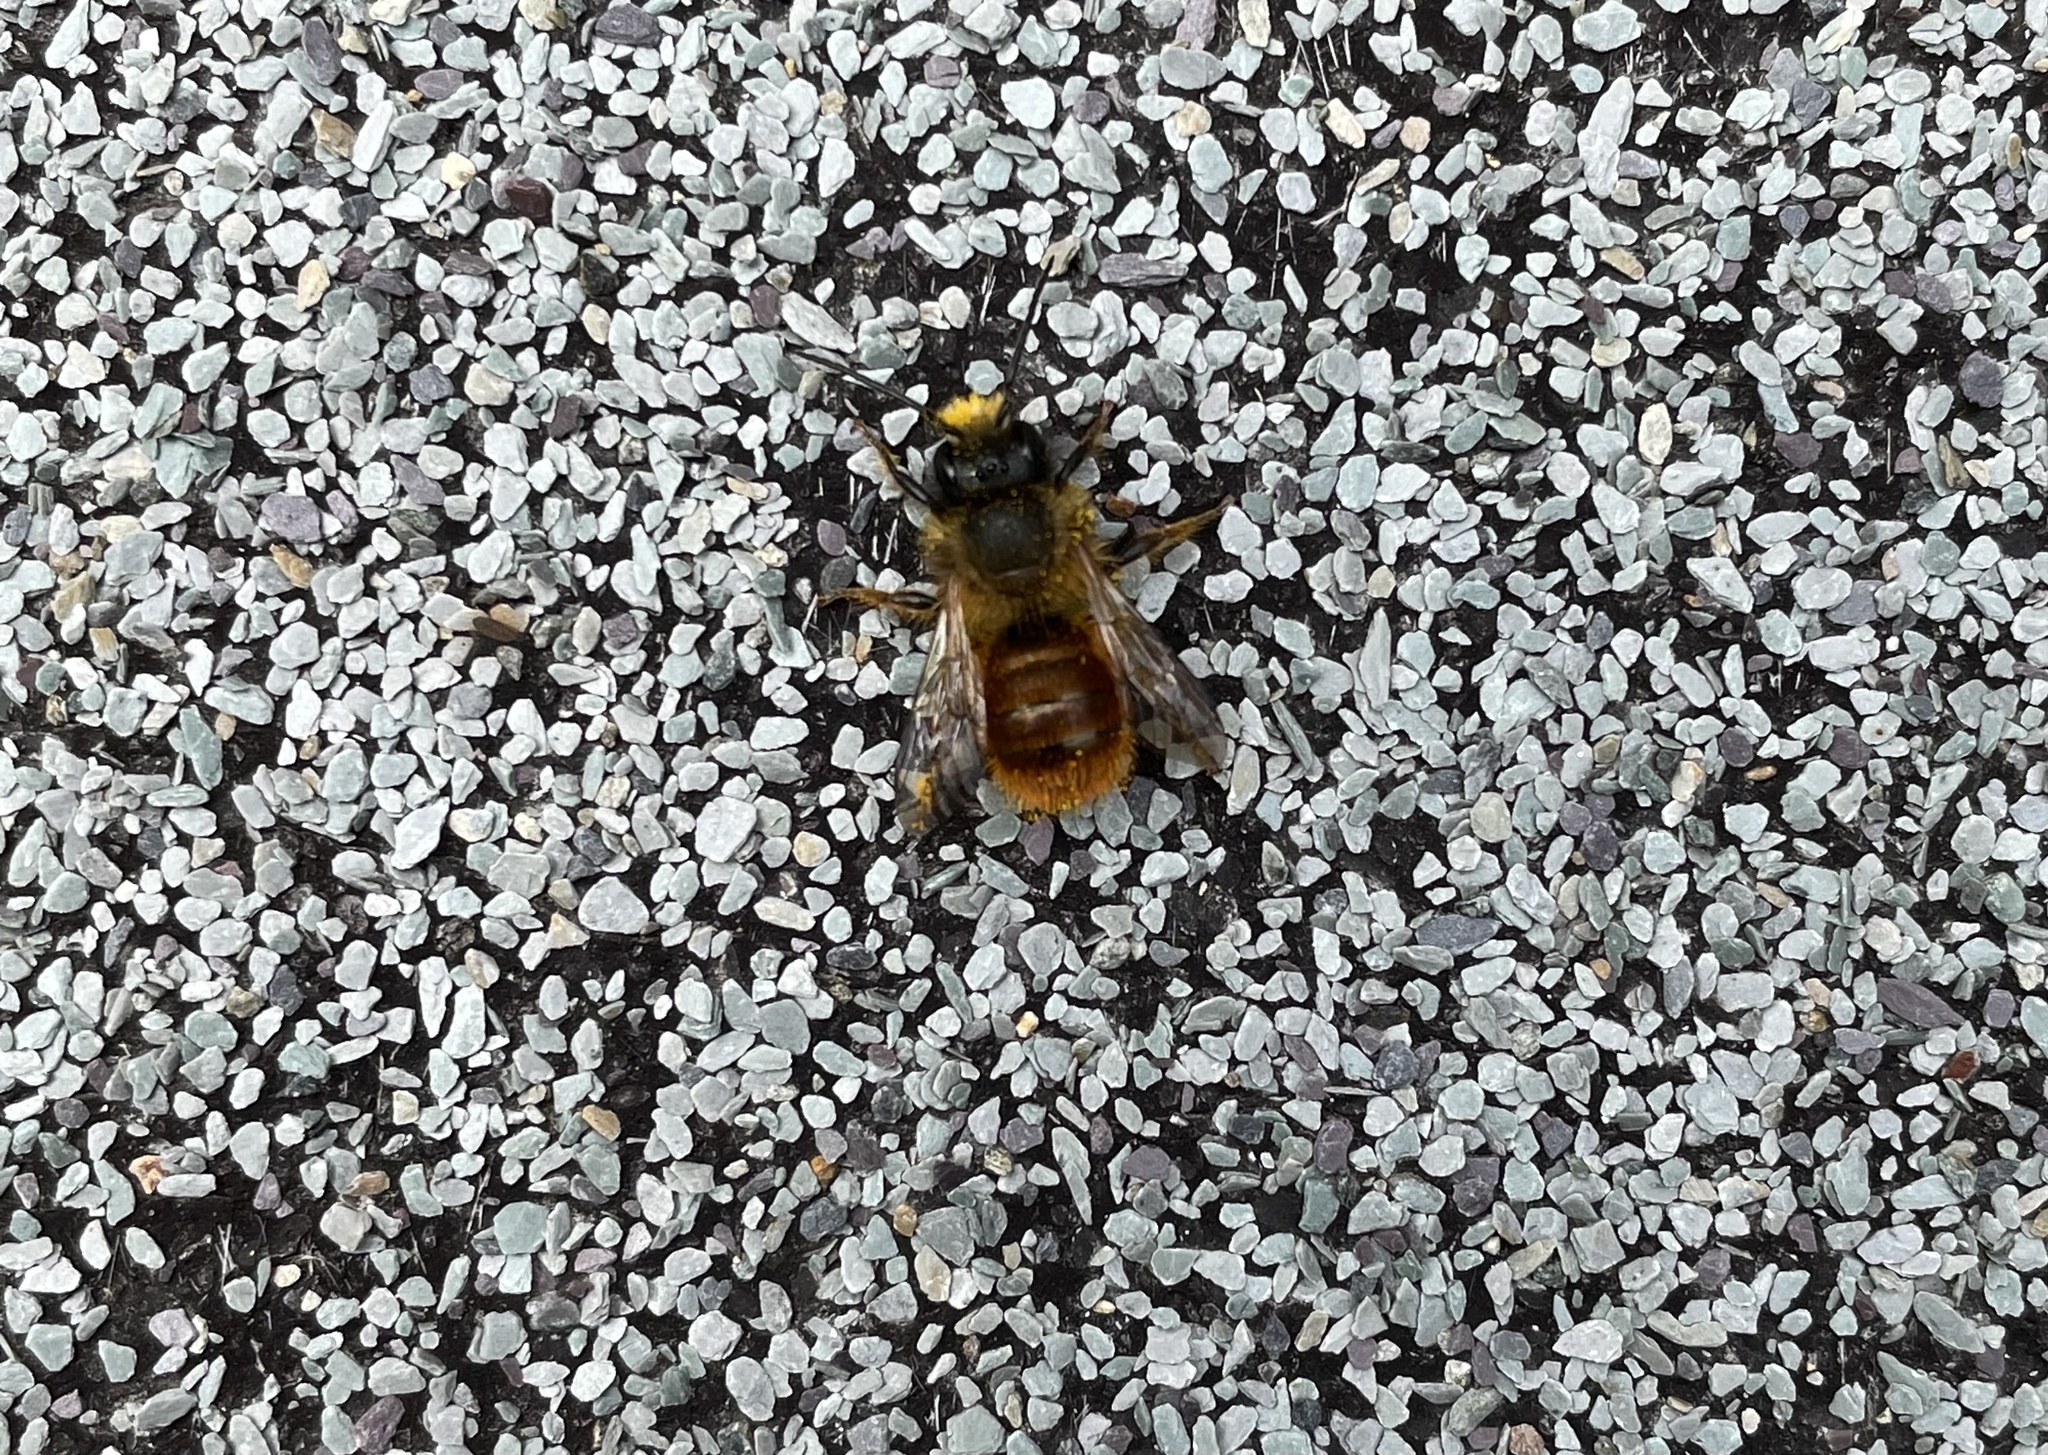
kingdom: Animalia
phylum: Arthropoda
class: Insecta
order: Hymenoptera
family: Megachilidae
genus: Osmia
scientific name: Osmia bicornis
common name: Red mason bee
